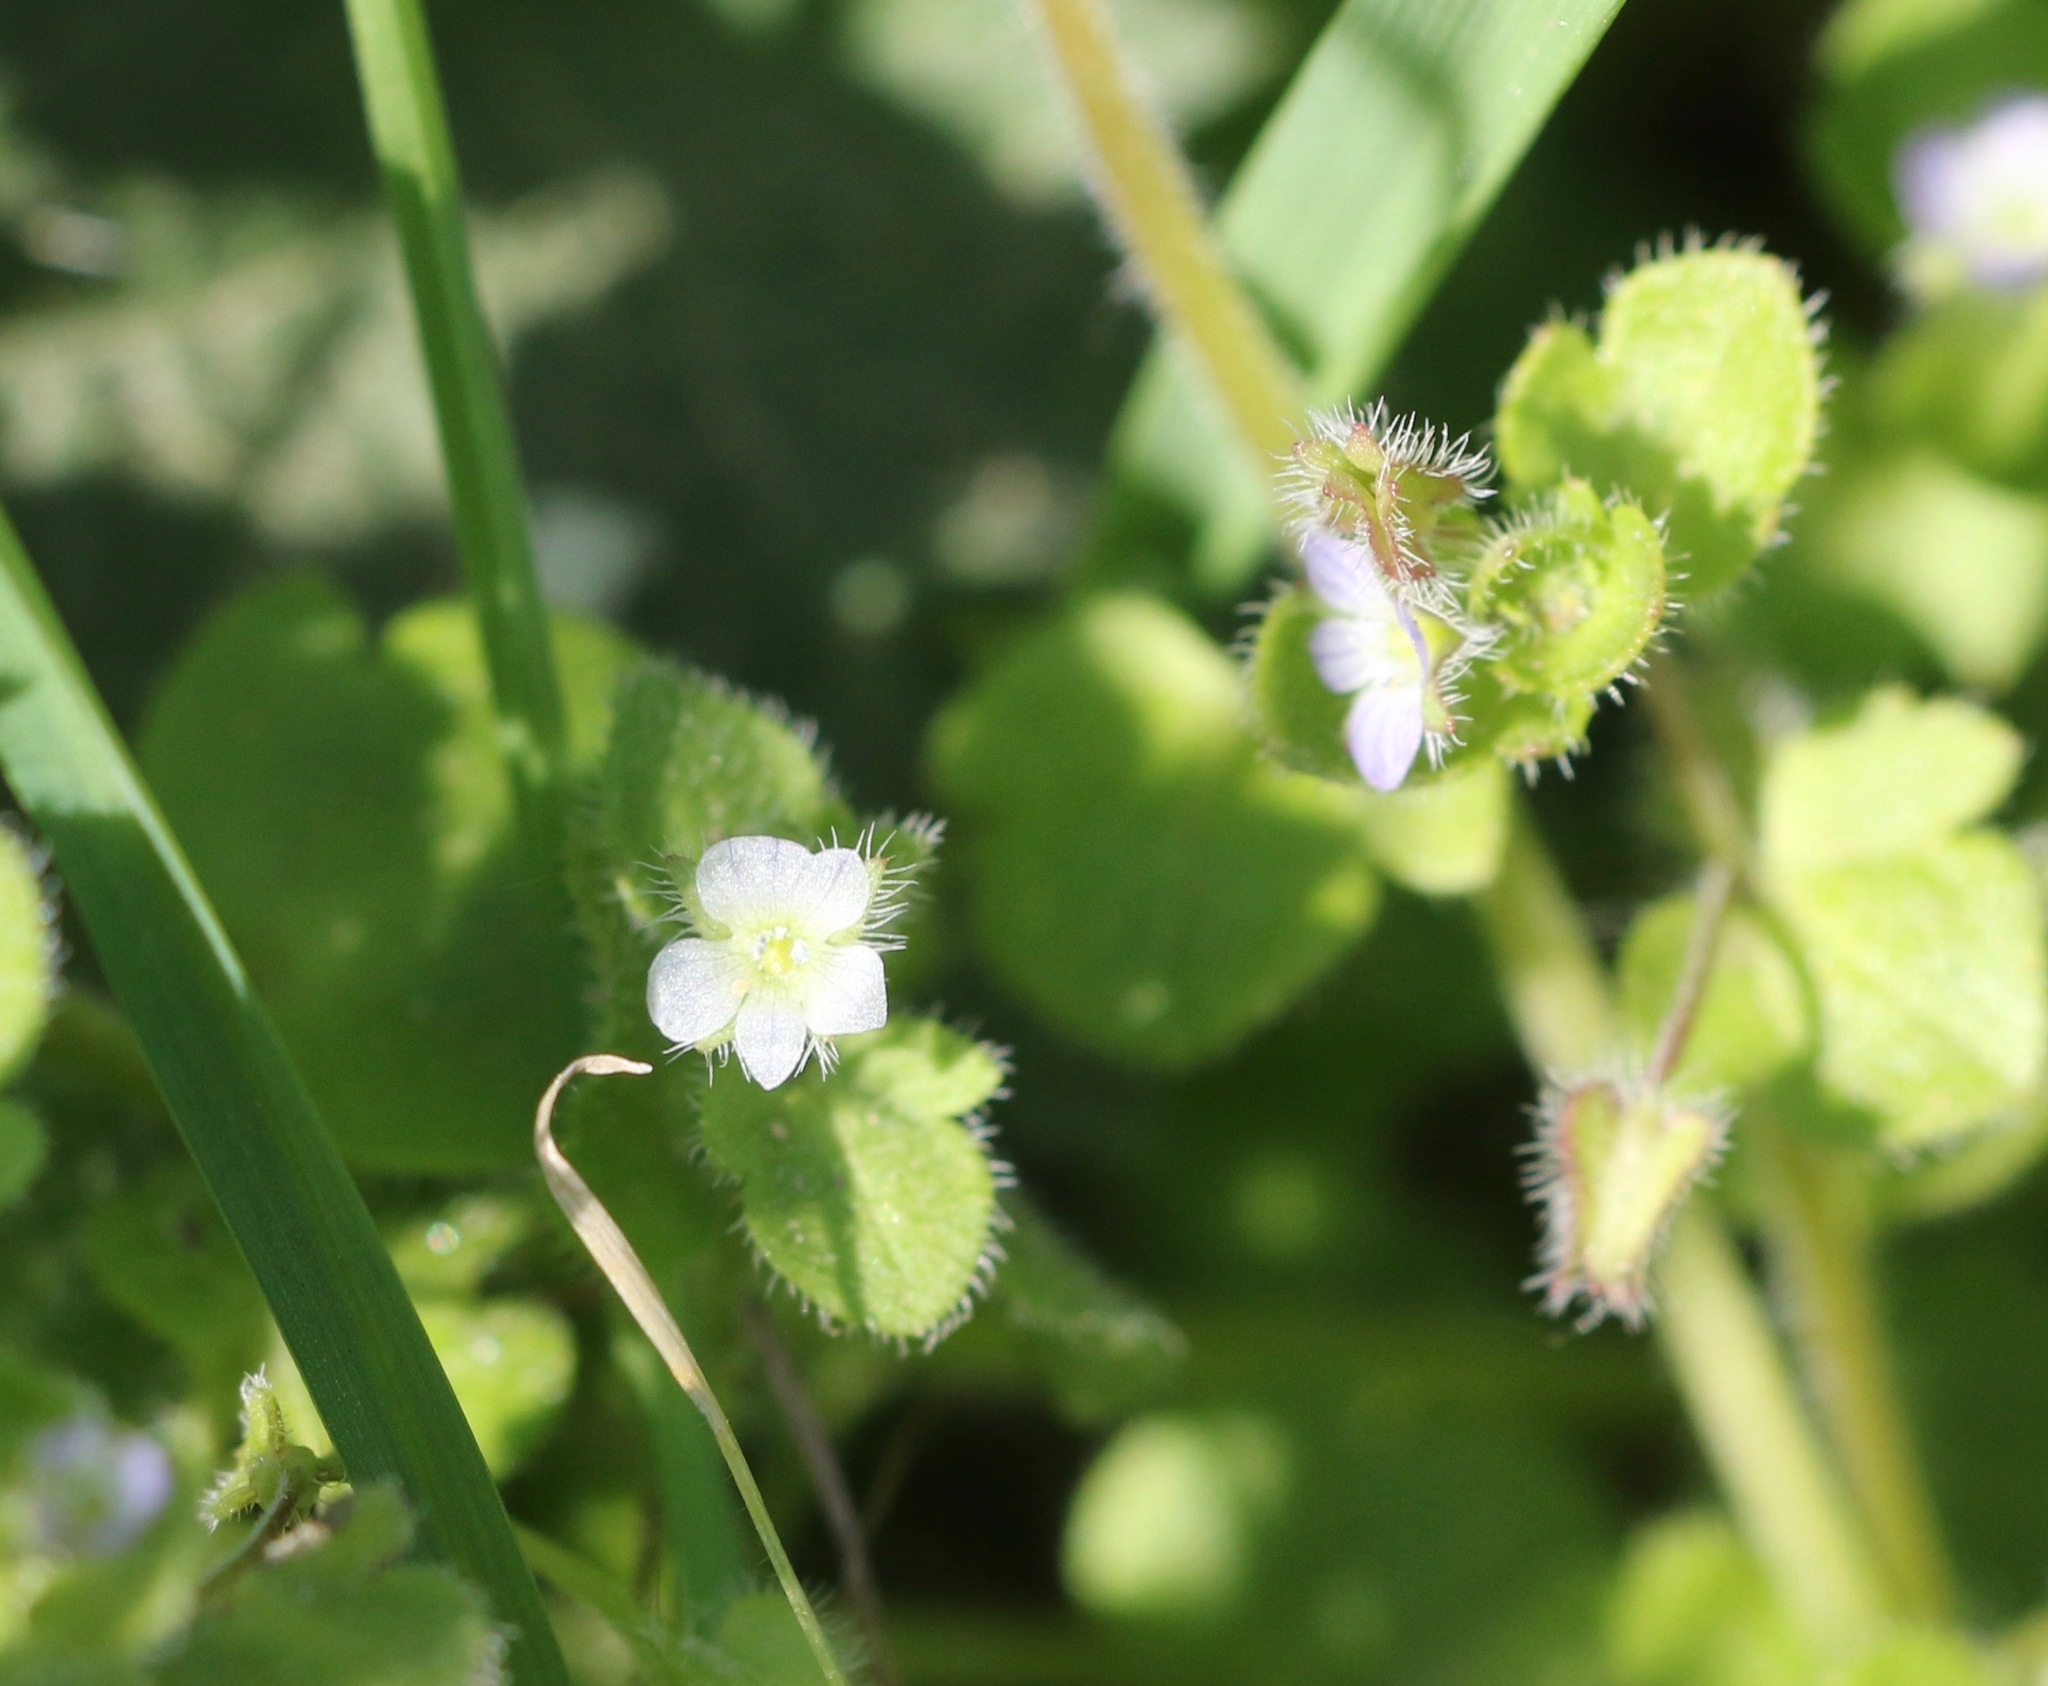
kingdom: Plantae
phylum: Tracheophyta
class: Magnoliopsida
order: Lamiales
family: Plantaginaceae
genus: Veronica
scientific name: Veronica sublobata
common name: False ivy-leaved speedwell
